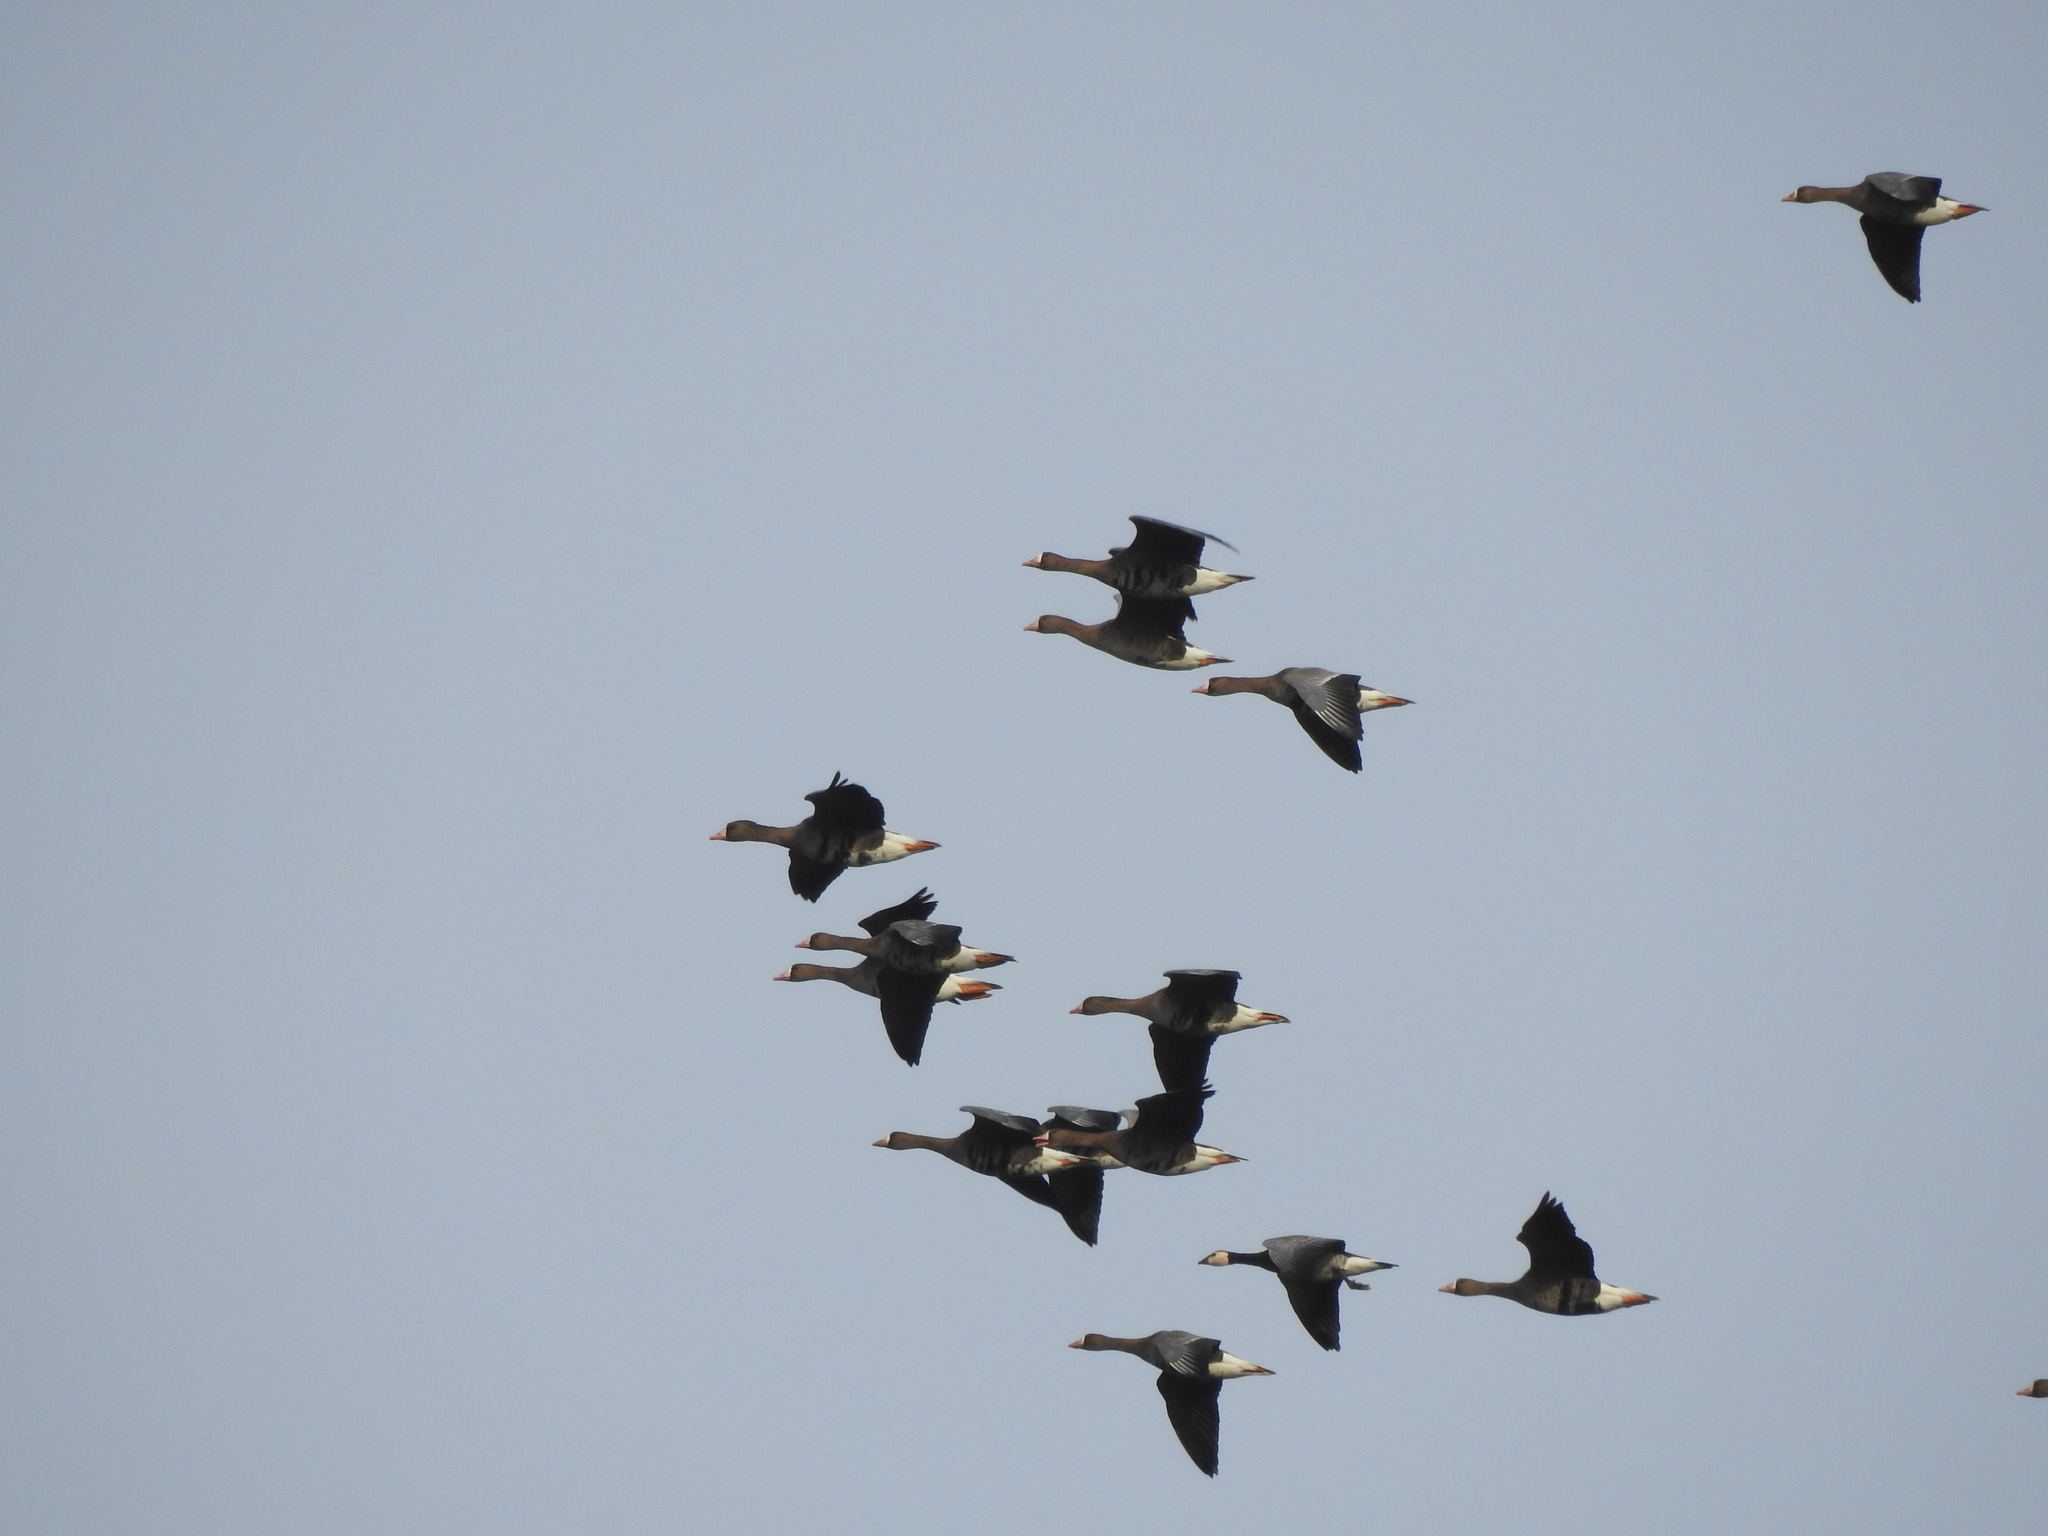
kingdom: Animalia
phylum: Chordata
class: Aves
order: Anseriformes
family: Anatidae
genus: Anser
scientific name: Anser albifrons
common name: Greater white-fronted goose
